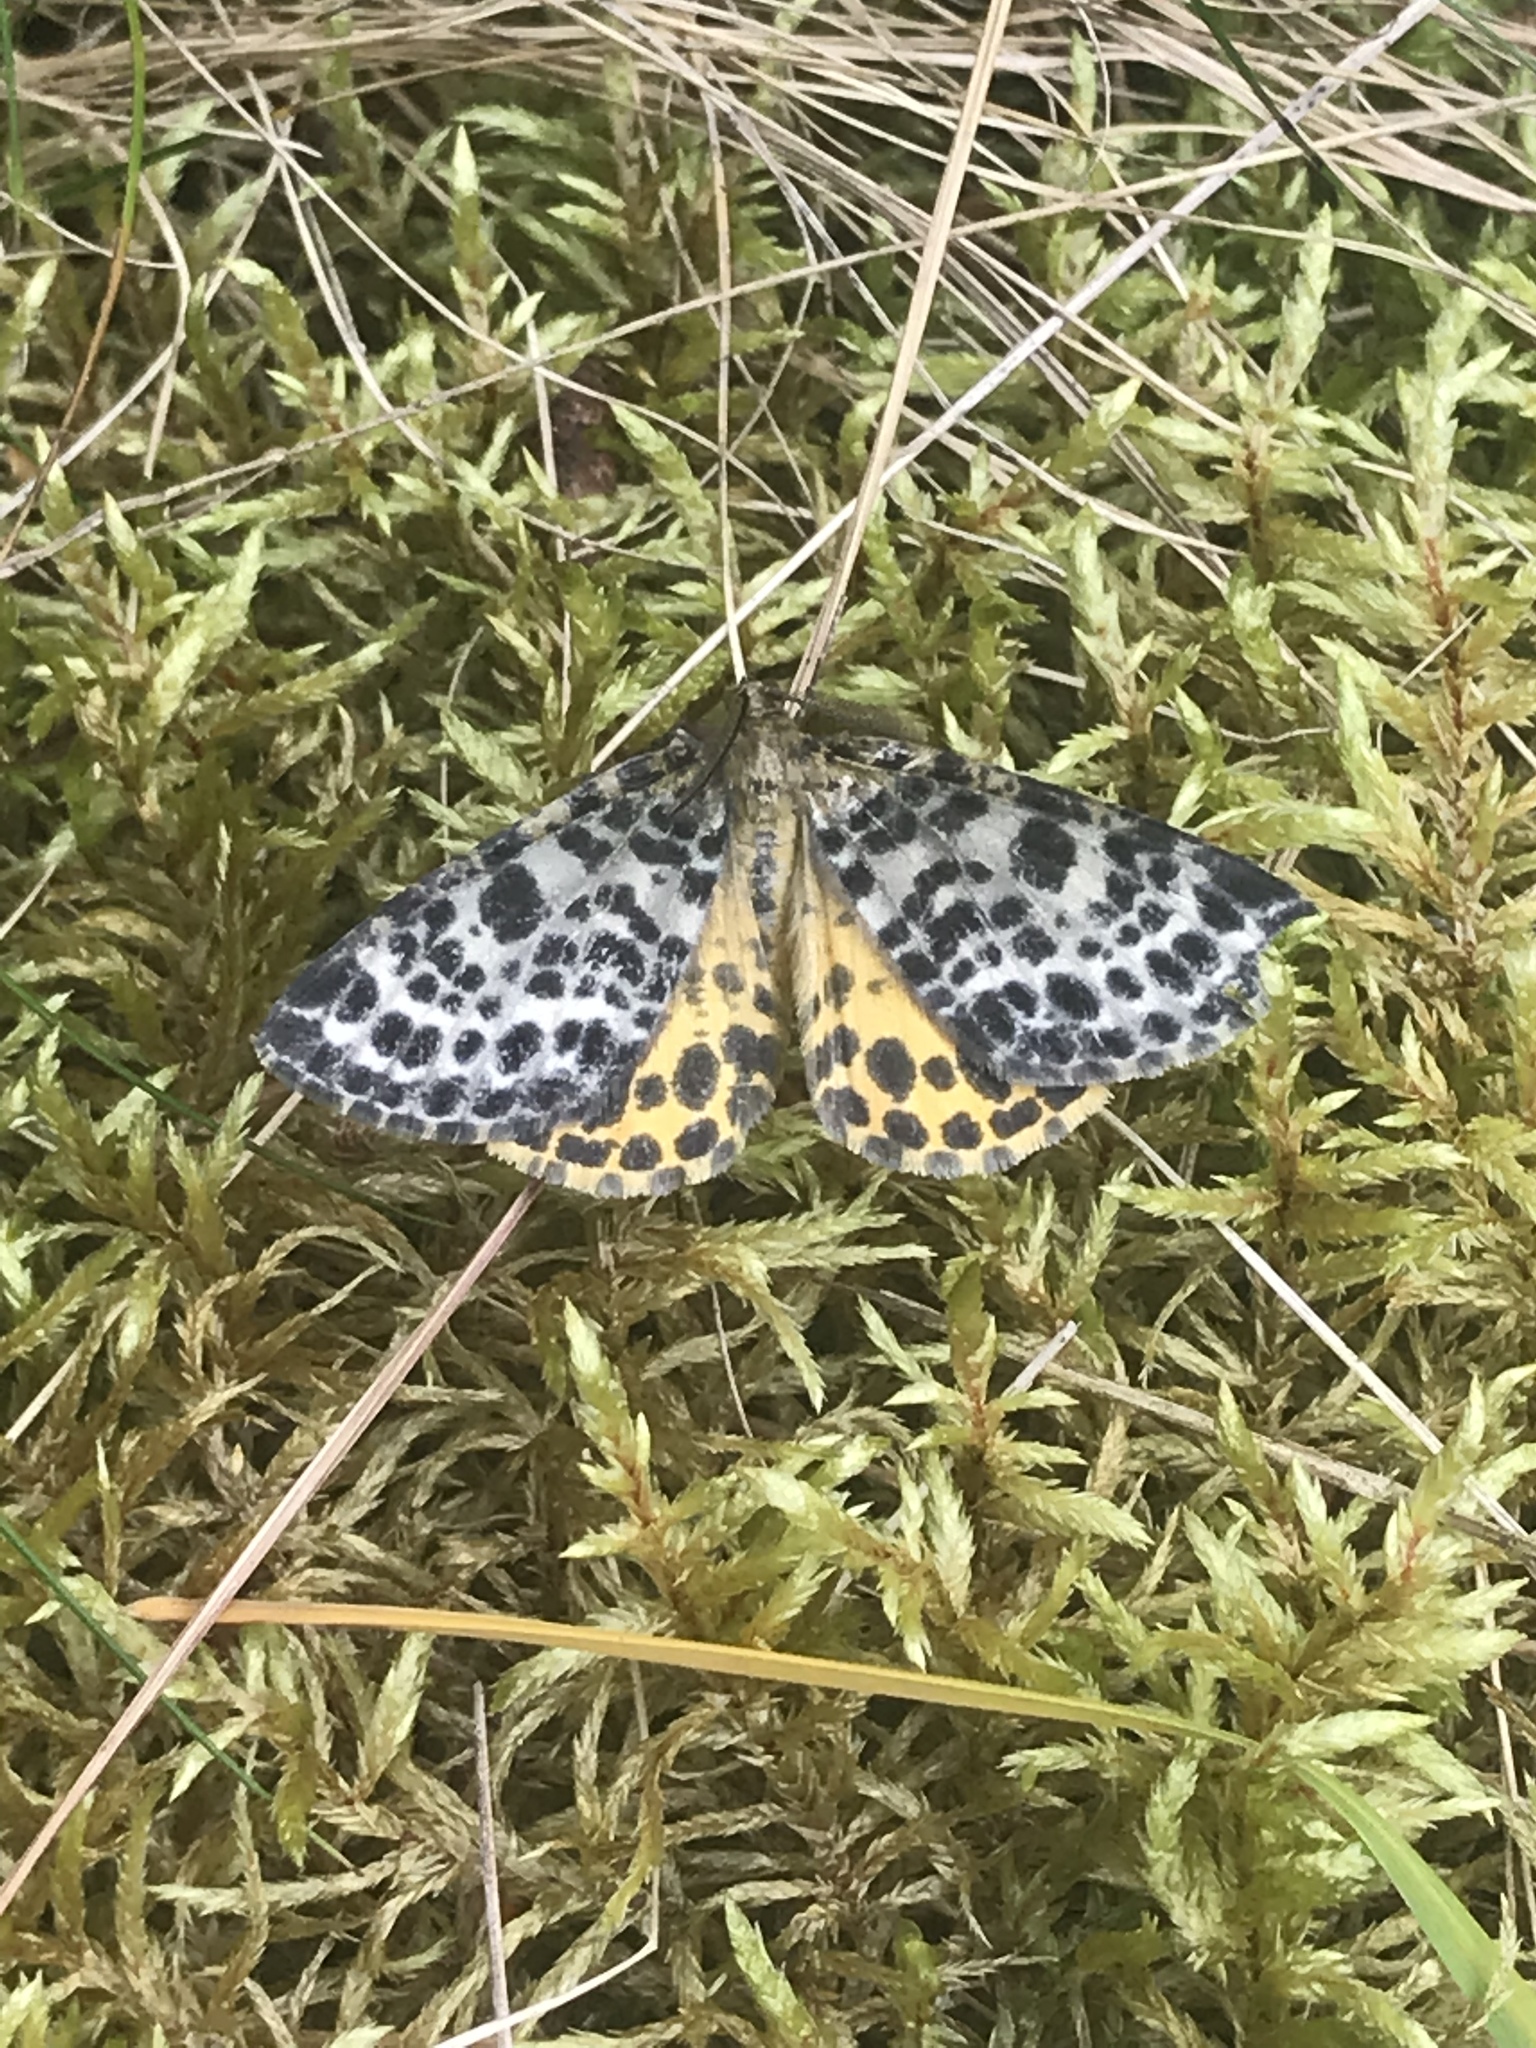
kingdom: Animalia
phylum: Arthropoda
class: Insecta
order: Lepidoptera
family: Geometridae
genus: Arichanna
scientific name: Arichanna melanaria
